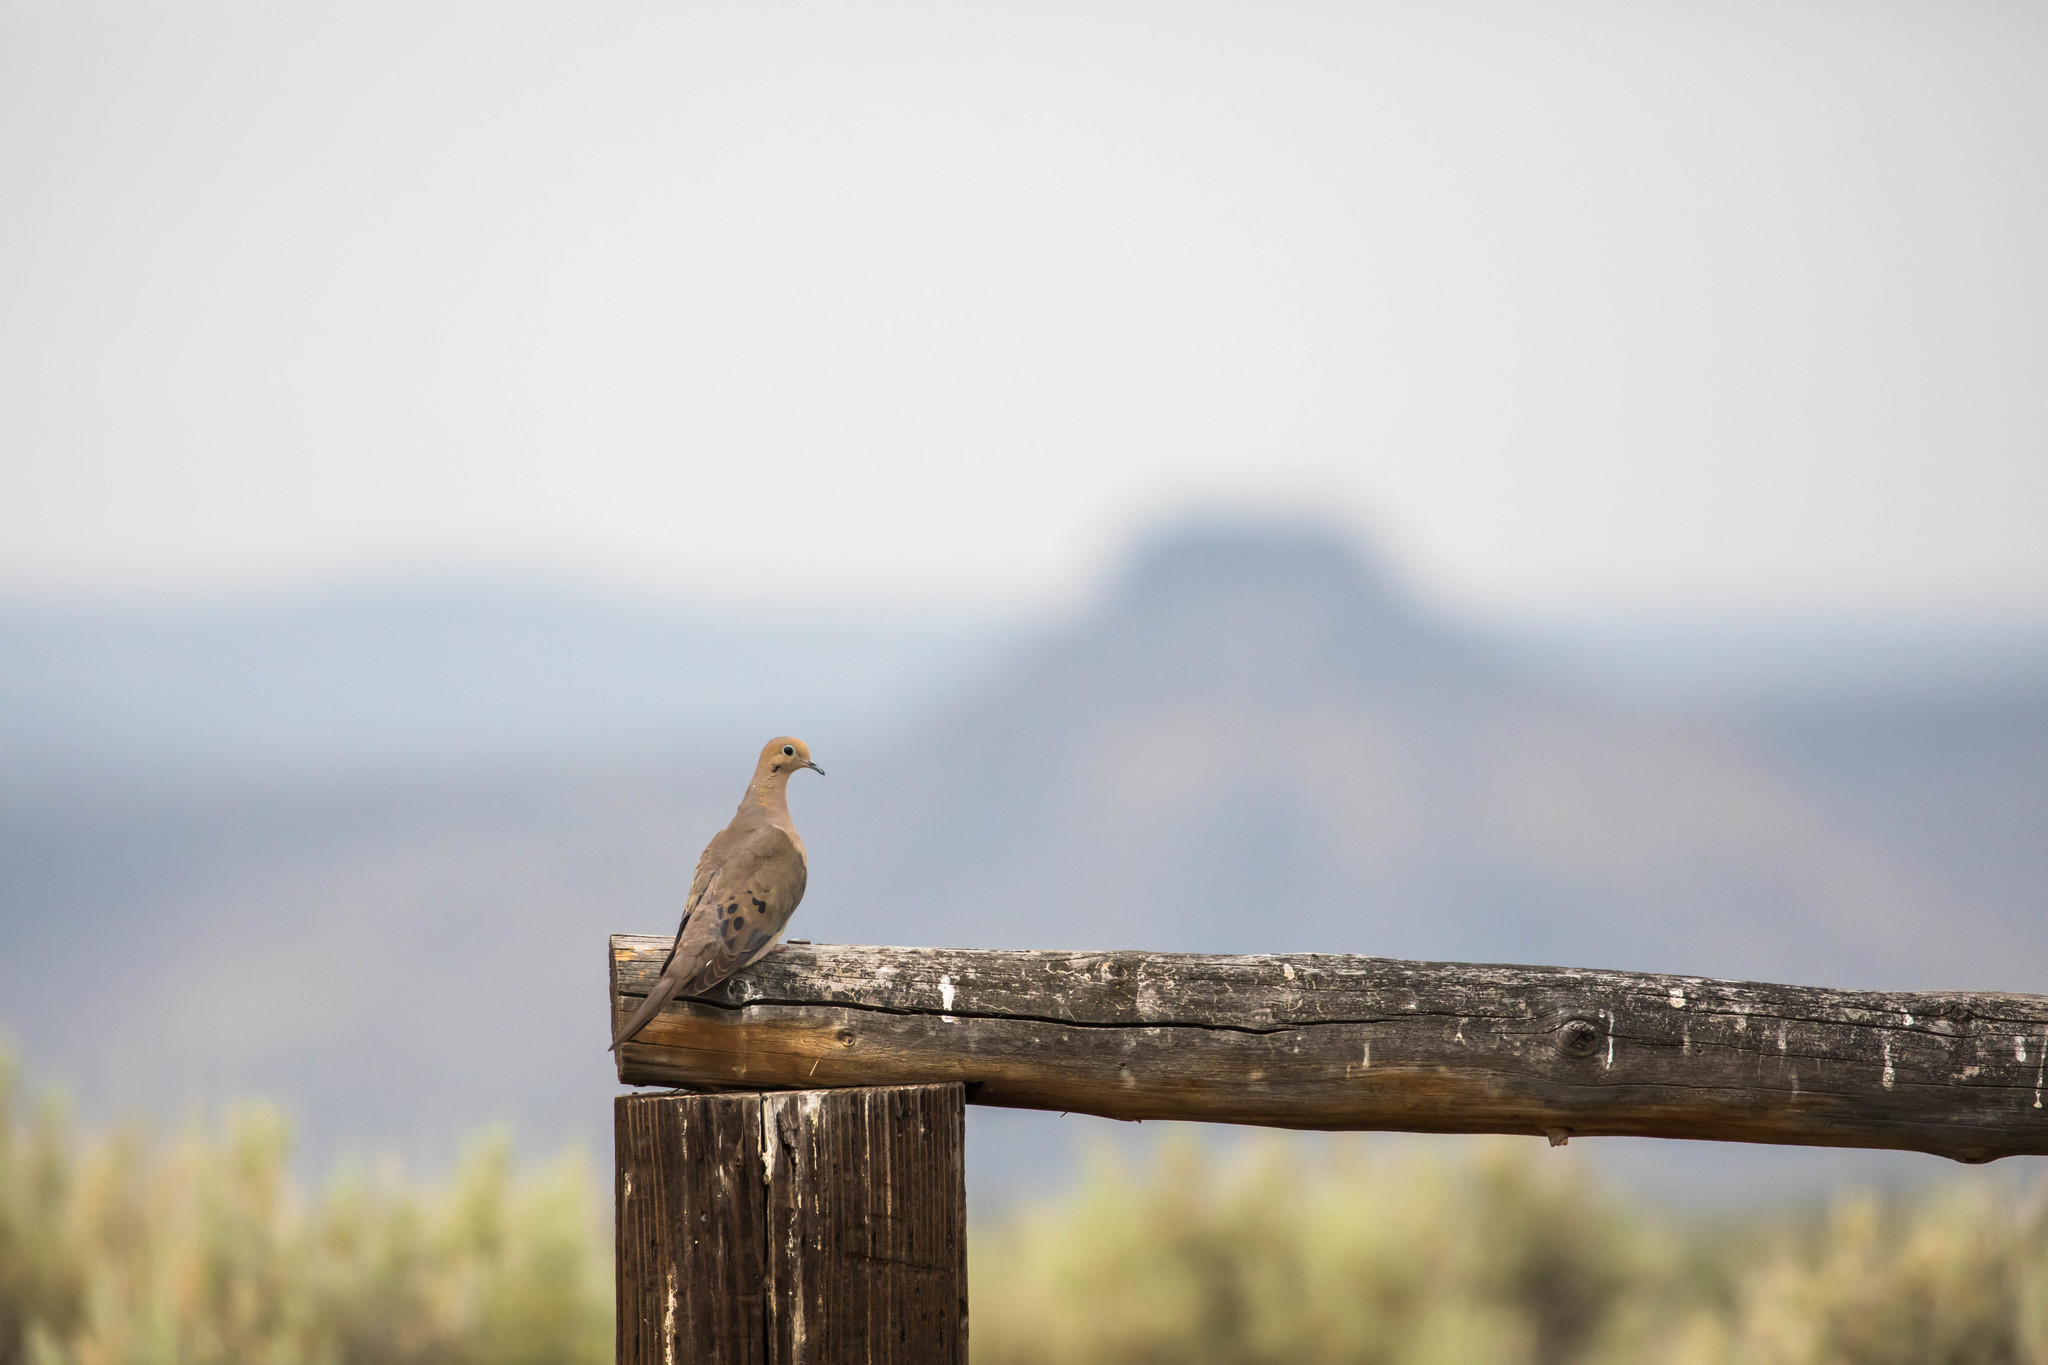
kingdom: Animalia
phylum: Chordata
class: Aves
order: Columbiformes
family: Columbidae
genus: Zenaida
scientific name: Zenaida macroura
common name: Mourning dove
